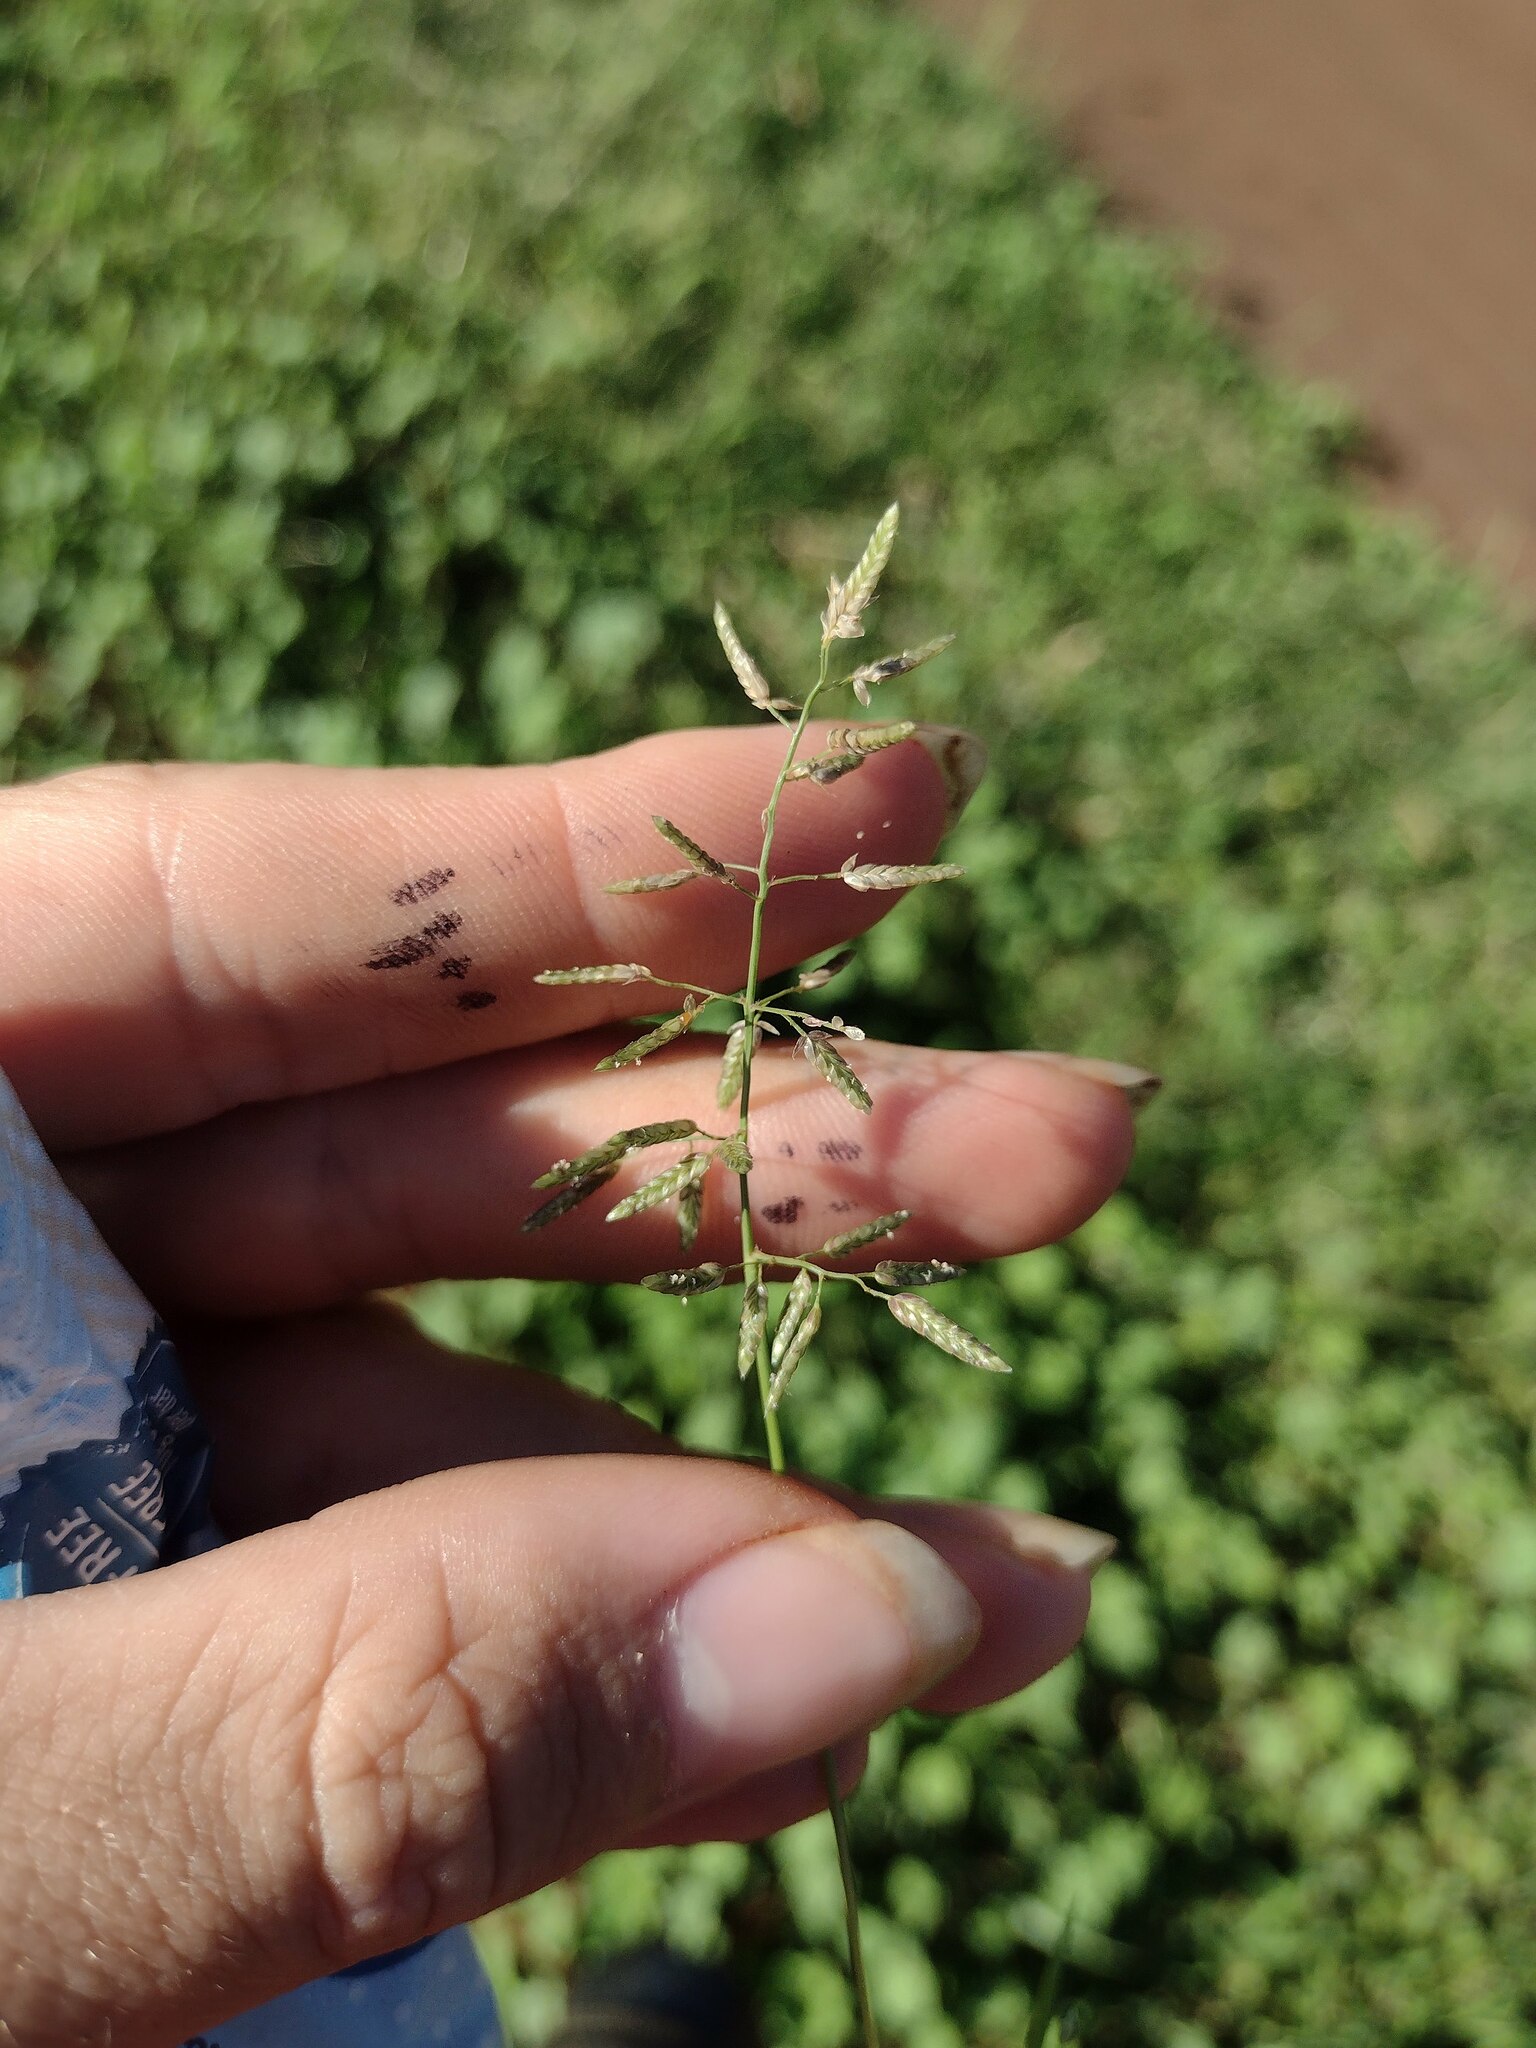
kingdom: Plantae
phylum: Tracheophyta
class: Liliopsida
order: Poales
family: Poaceae
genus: Eragrostis
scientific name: Eragrostis cilianensis
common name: Stinkgrass
